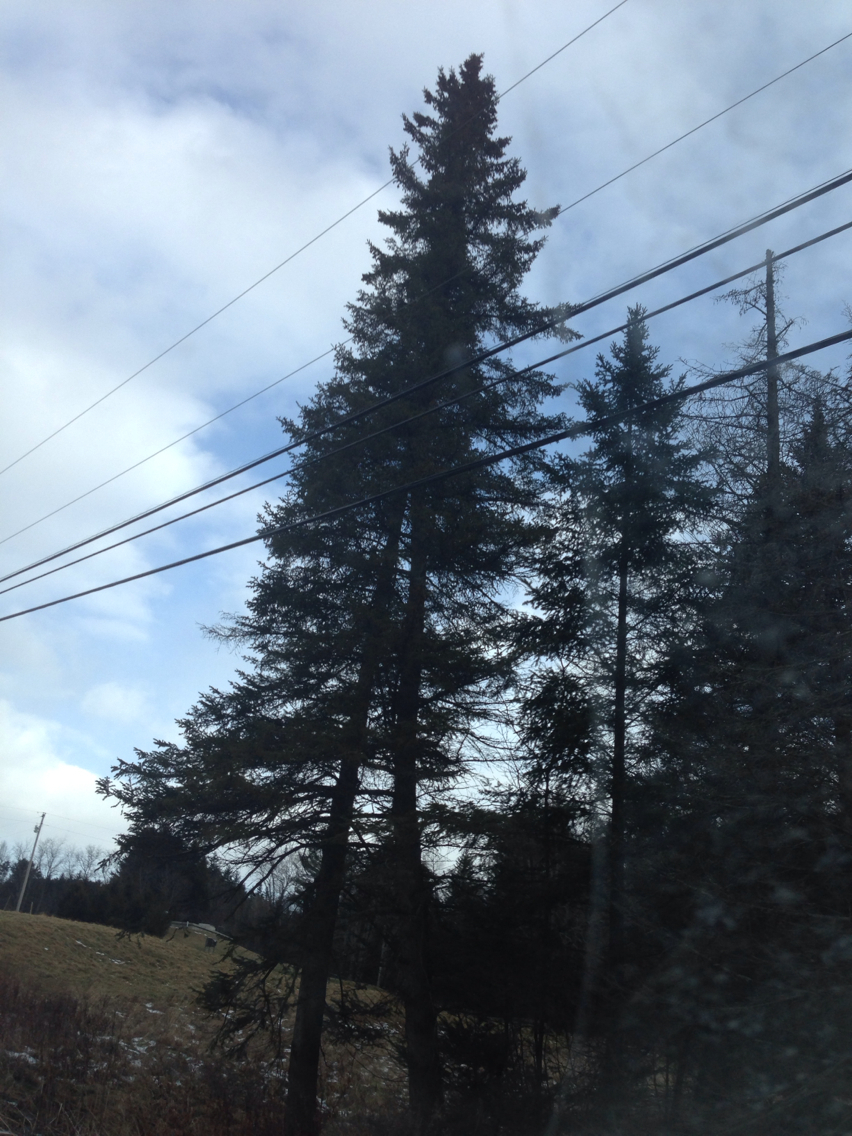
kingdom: Plantae
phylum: Tracheophyta
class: Pinopsida
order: Pinales
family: Pinaceae
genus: Abies
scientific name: Abies balsamea
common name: Balsam fir
